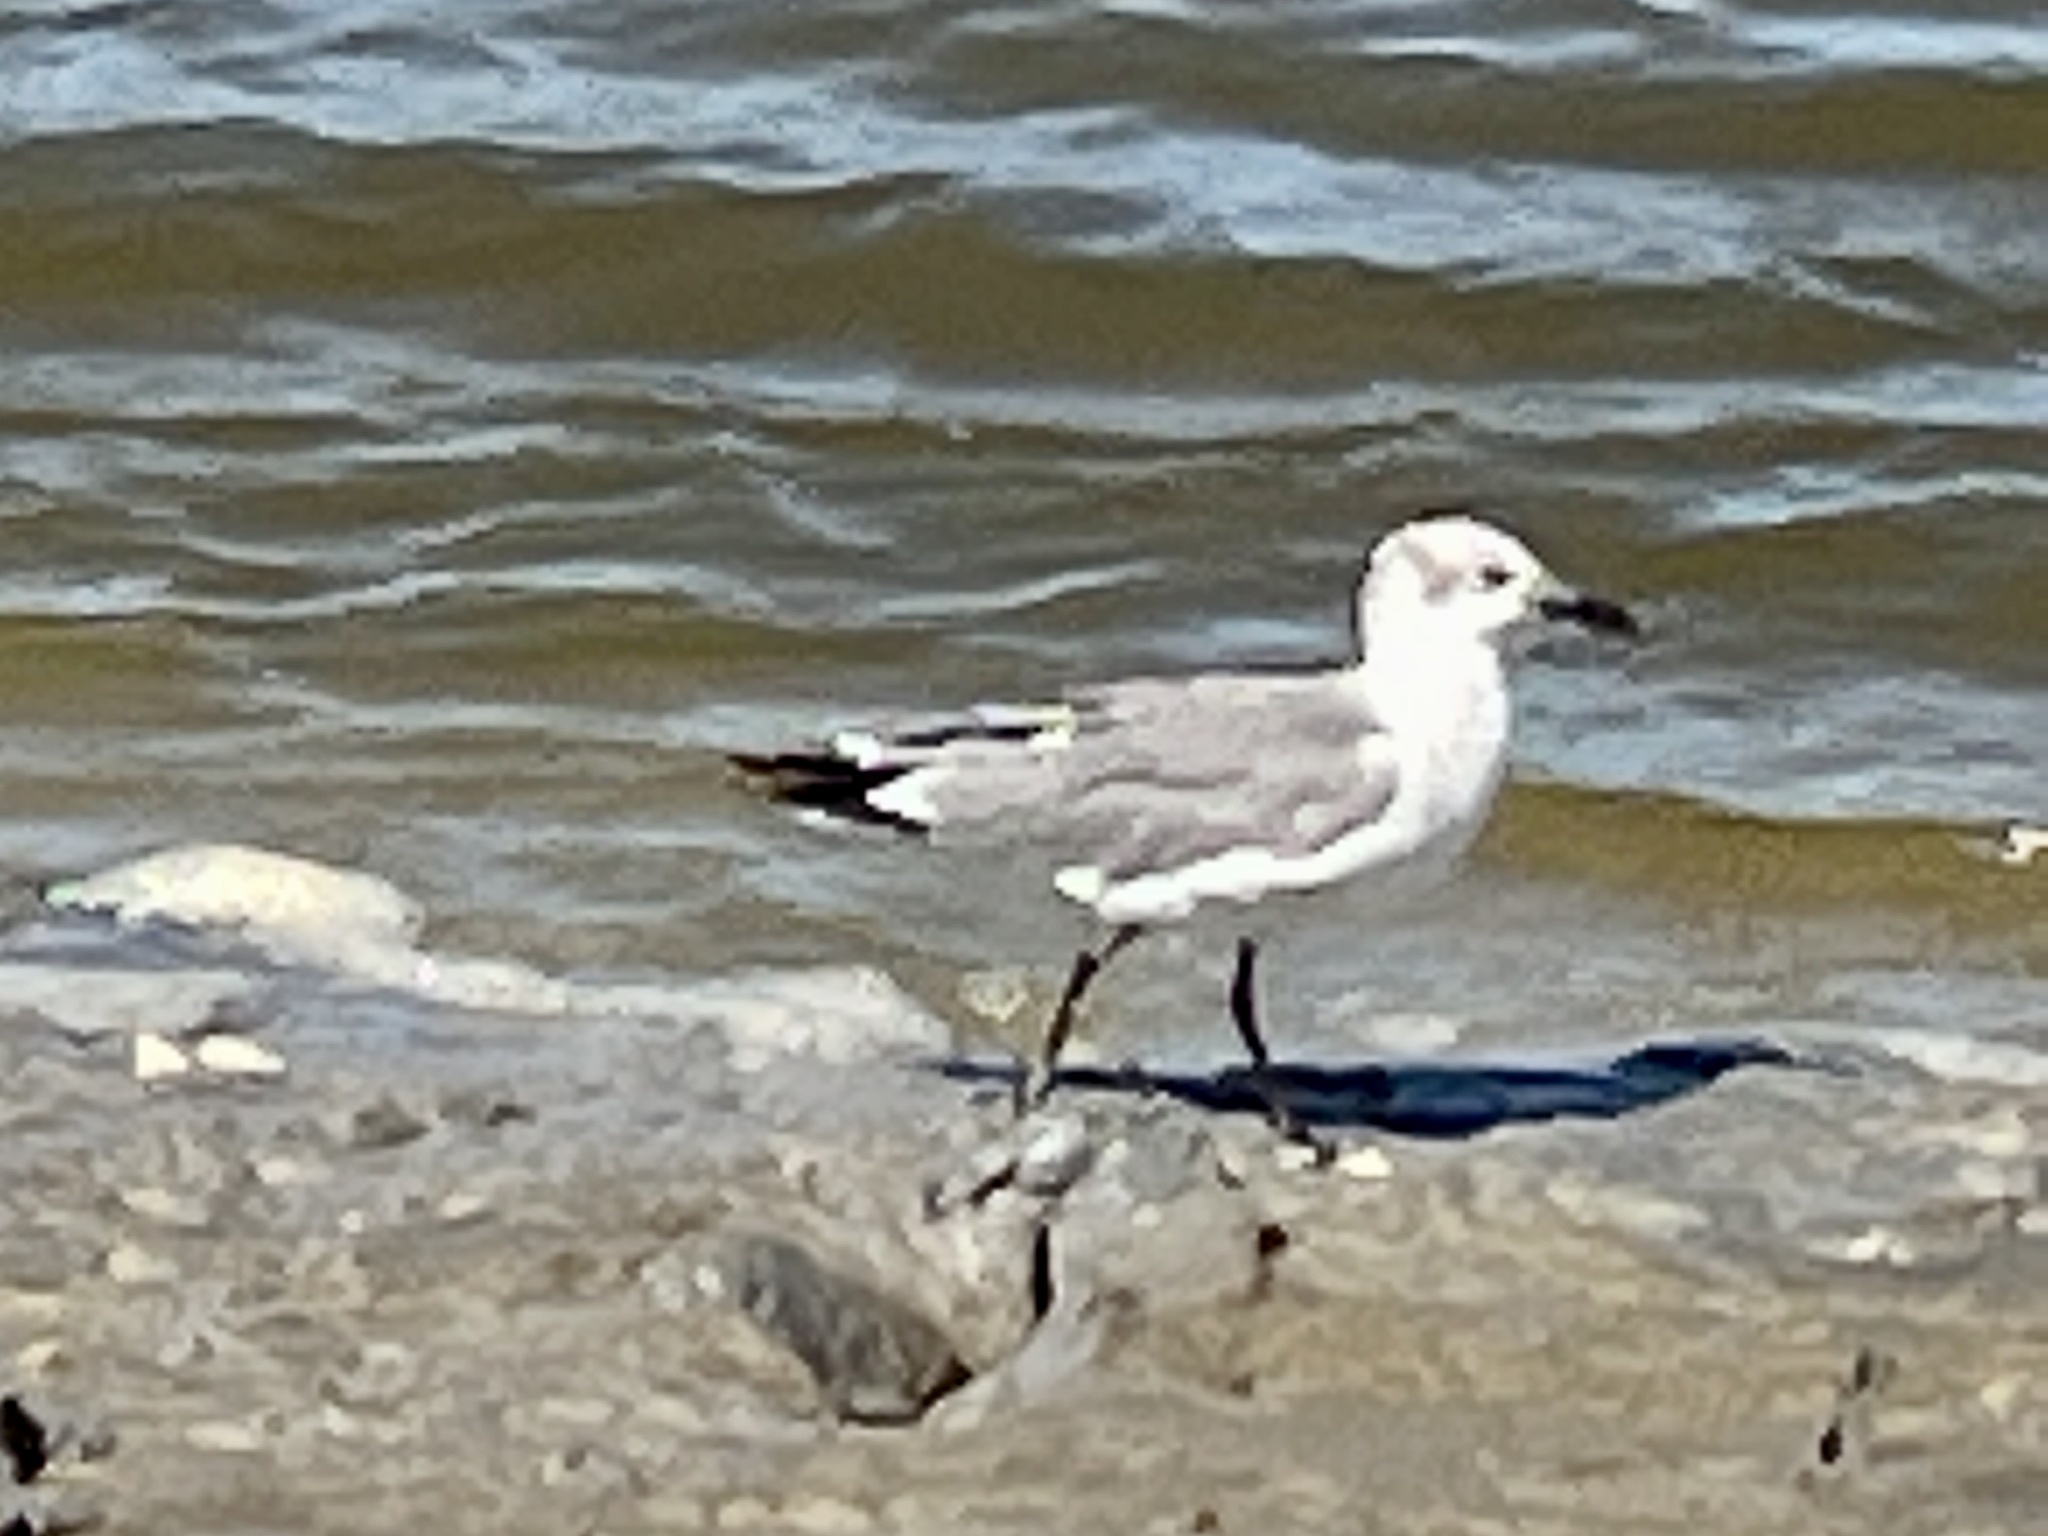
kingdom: Animalia
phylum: Chordata
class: Aves
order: Charadriiformes
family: Laridae
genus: Leucophaeus
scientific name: Leucophaeus atricilla
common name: Laughing gull
